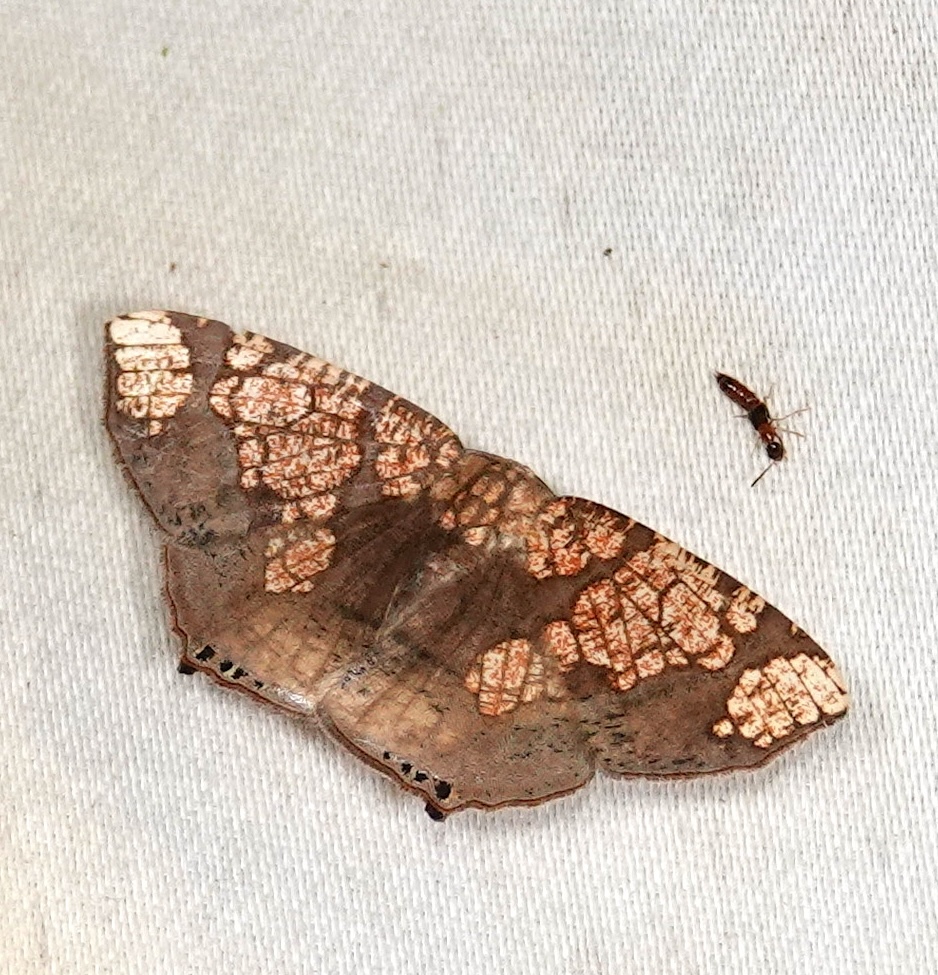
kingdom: Animalia
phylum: Arthropoda
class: Insecta
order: Lepidoptera
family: Geometridae
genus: Nematocampa
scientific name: Nematocampa completa
